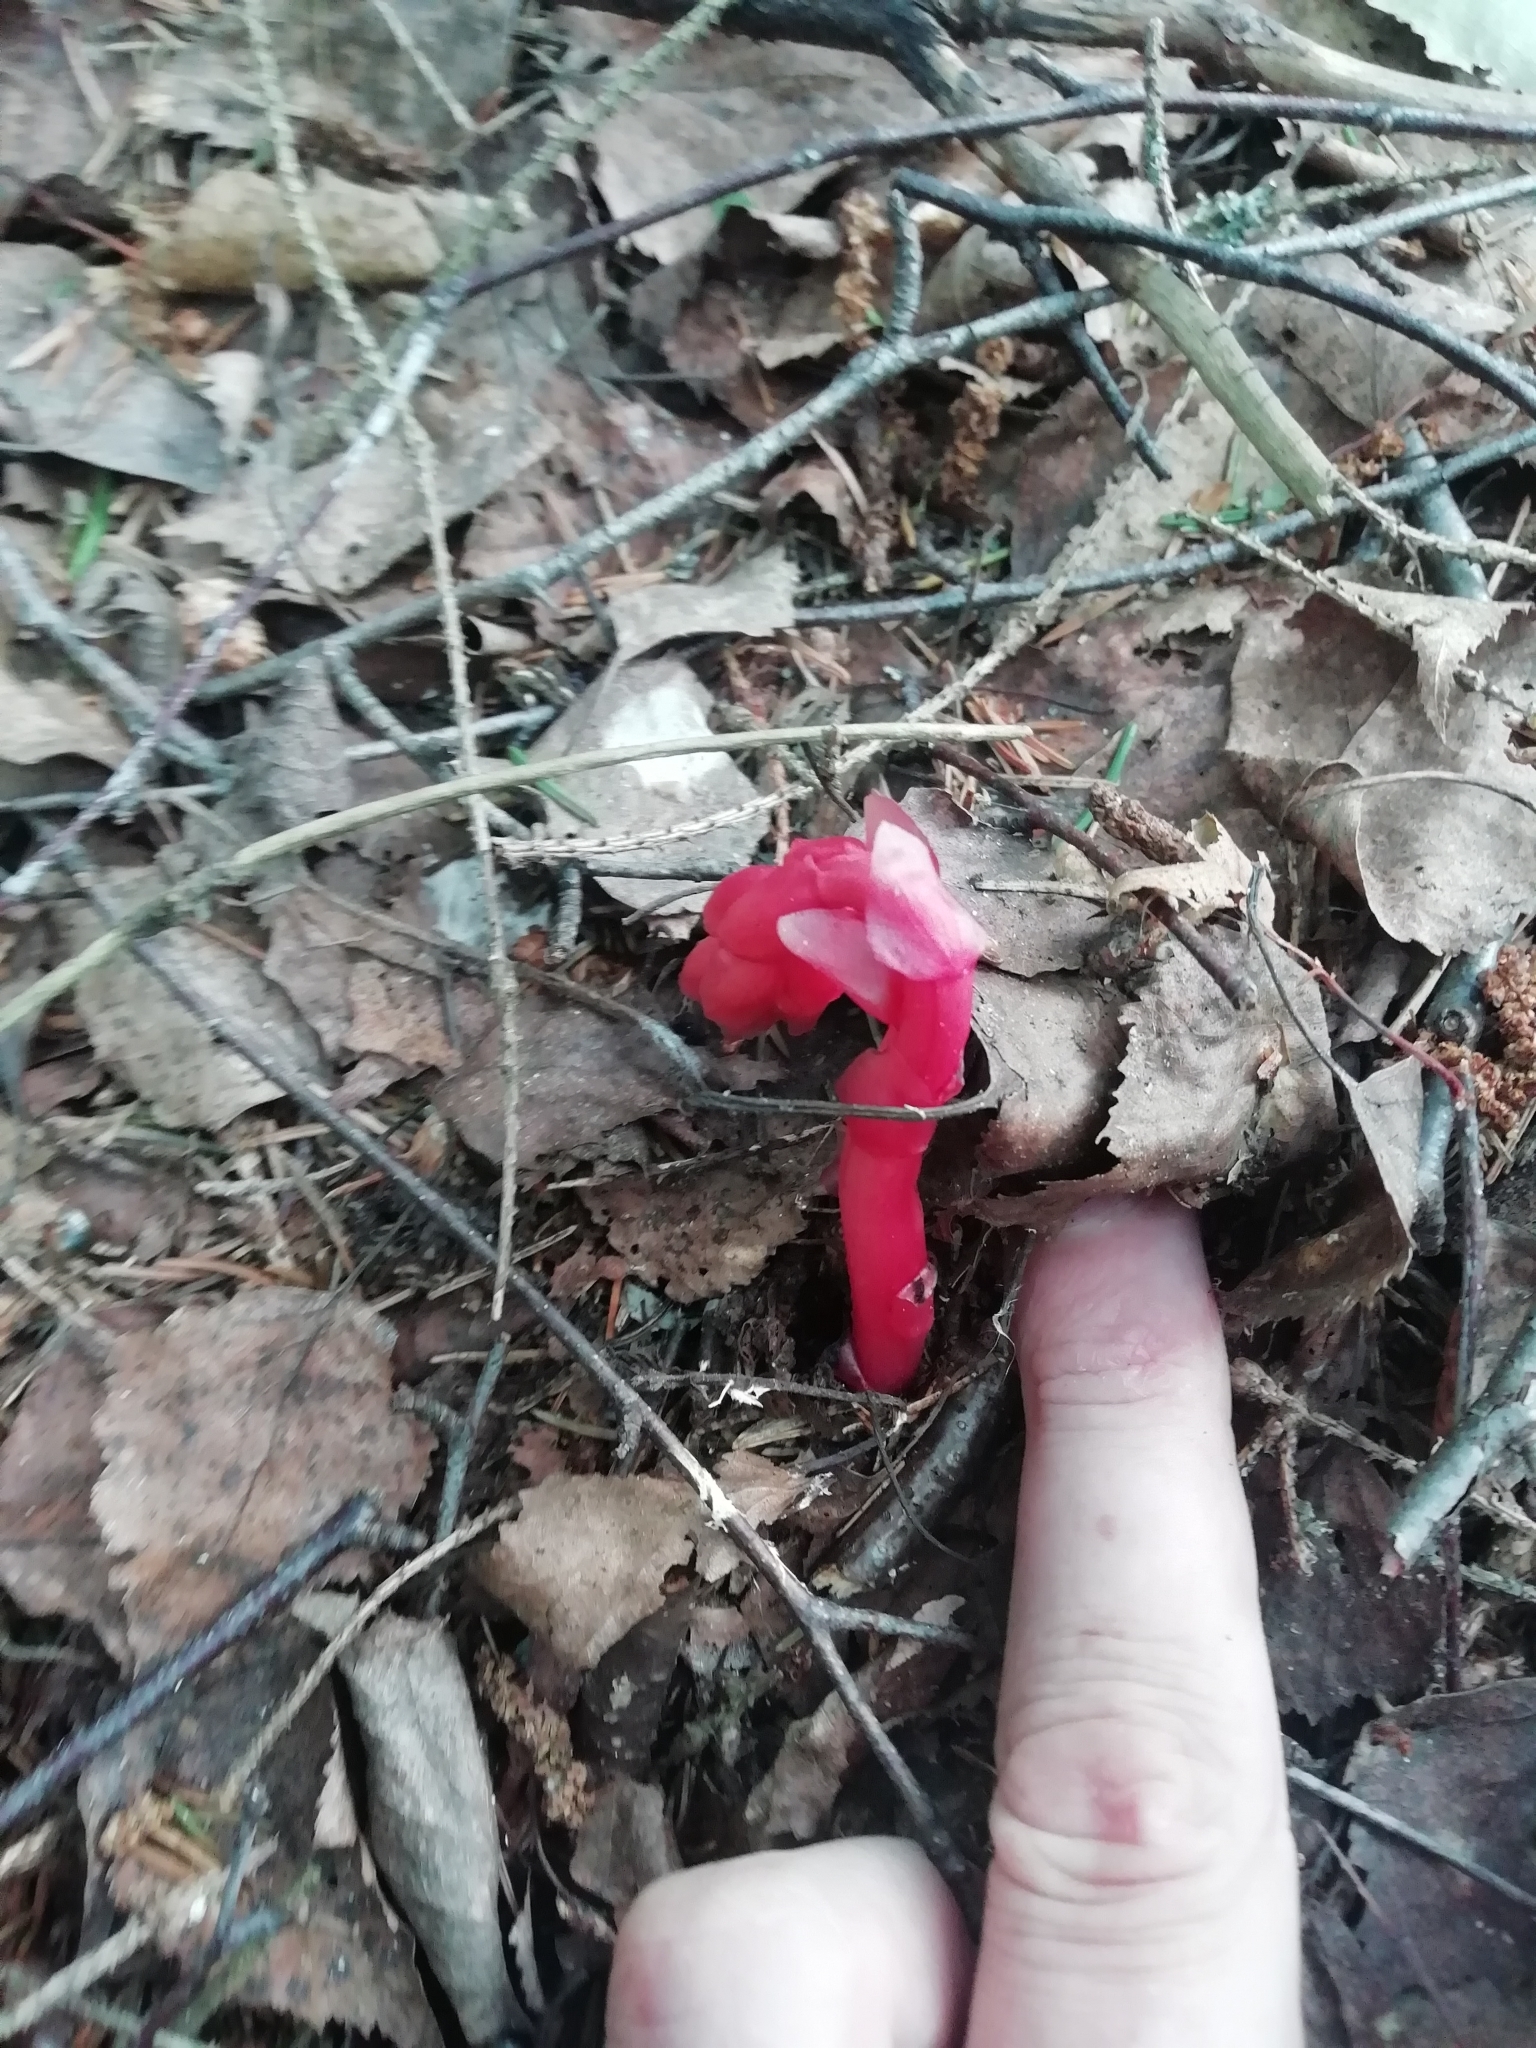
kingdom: Plantae
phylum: Tracheophyta
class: Magnoliopsida
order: Ericales
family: Ericaceae
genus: Hypopitys
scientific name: Hypopitys monotropa
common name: Yellow bird's-nest
